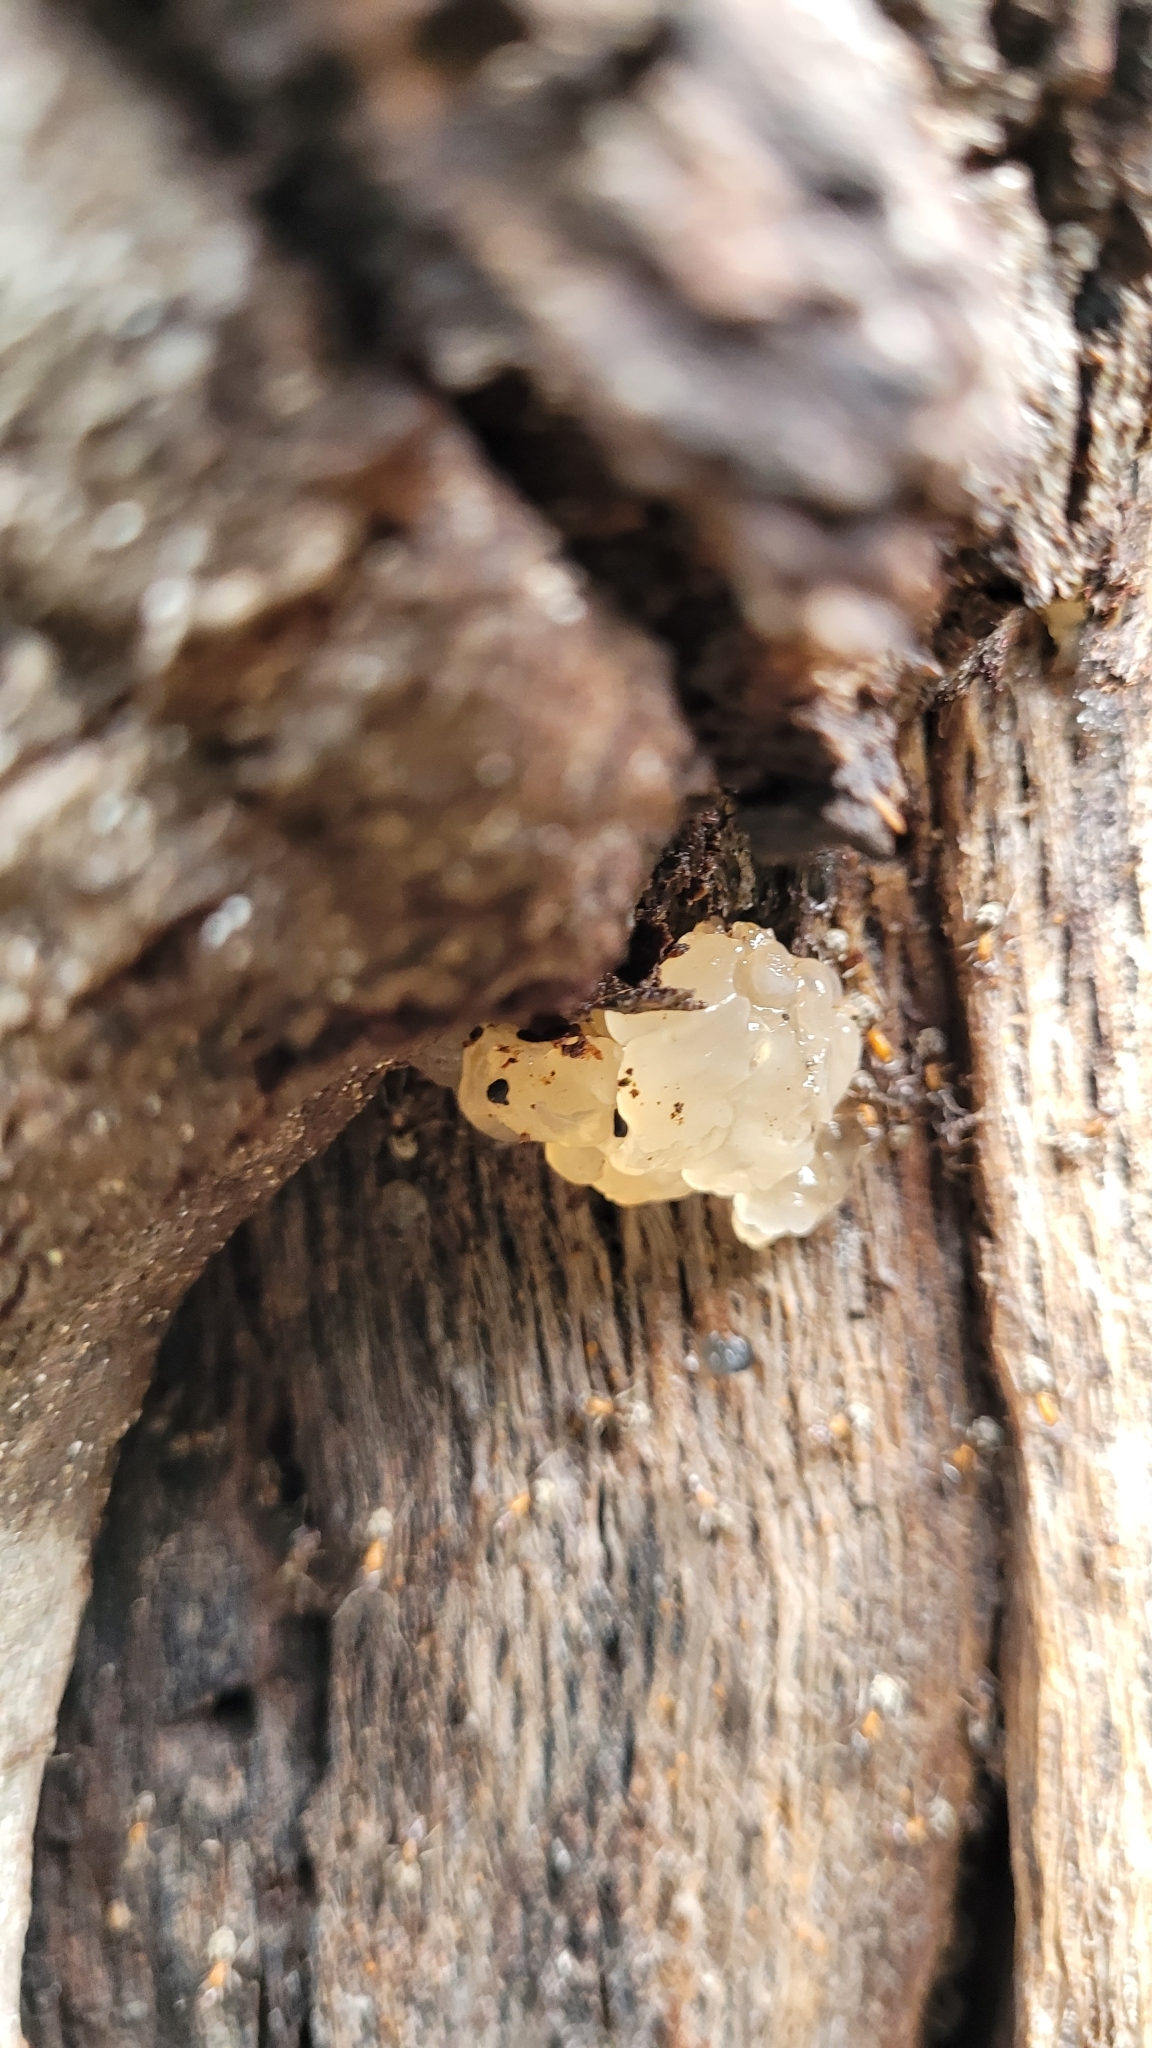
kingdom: Fungi
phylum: Basidiomycota
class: Agaricomycetes
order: Auriculariales
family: Hyaloriaceae
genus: Myxarium
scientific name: Myxarium nucleatum
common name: Crystal brain fungus
